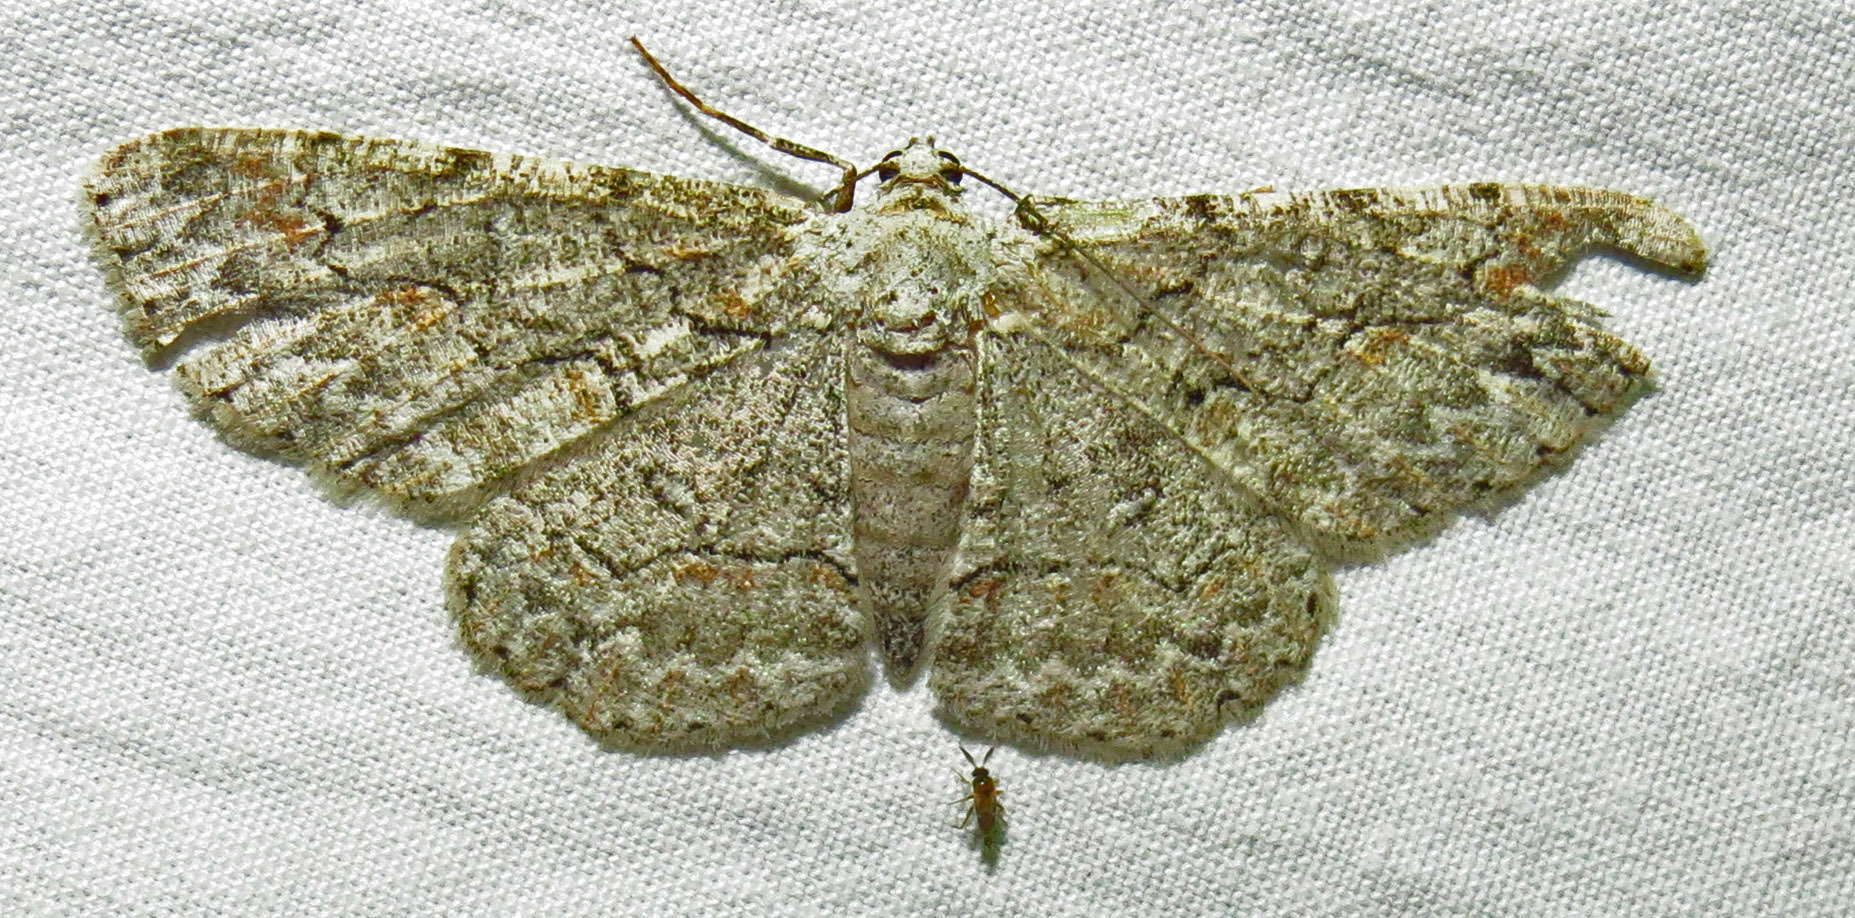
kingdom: Animalia
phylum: Arthropoda
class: Insecta
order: Lepidoptera
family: Geometridae
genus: Iridopsis
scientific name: Iridopsis defectaria
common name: Brown-shaded gray
